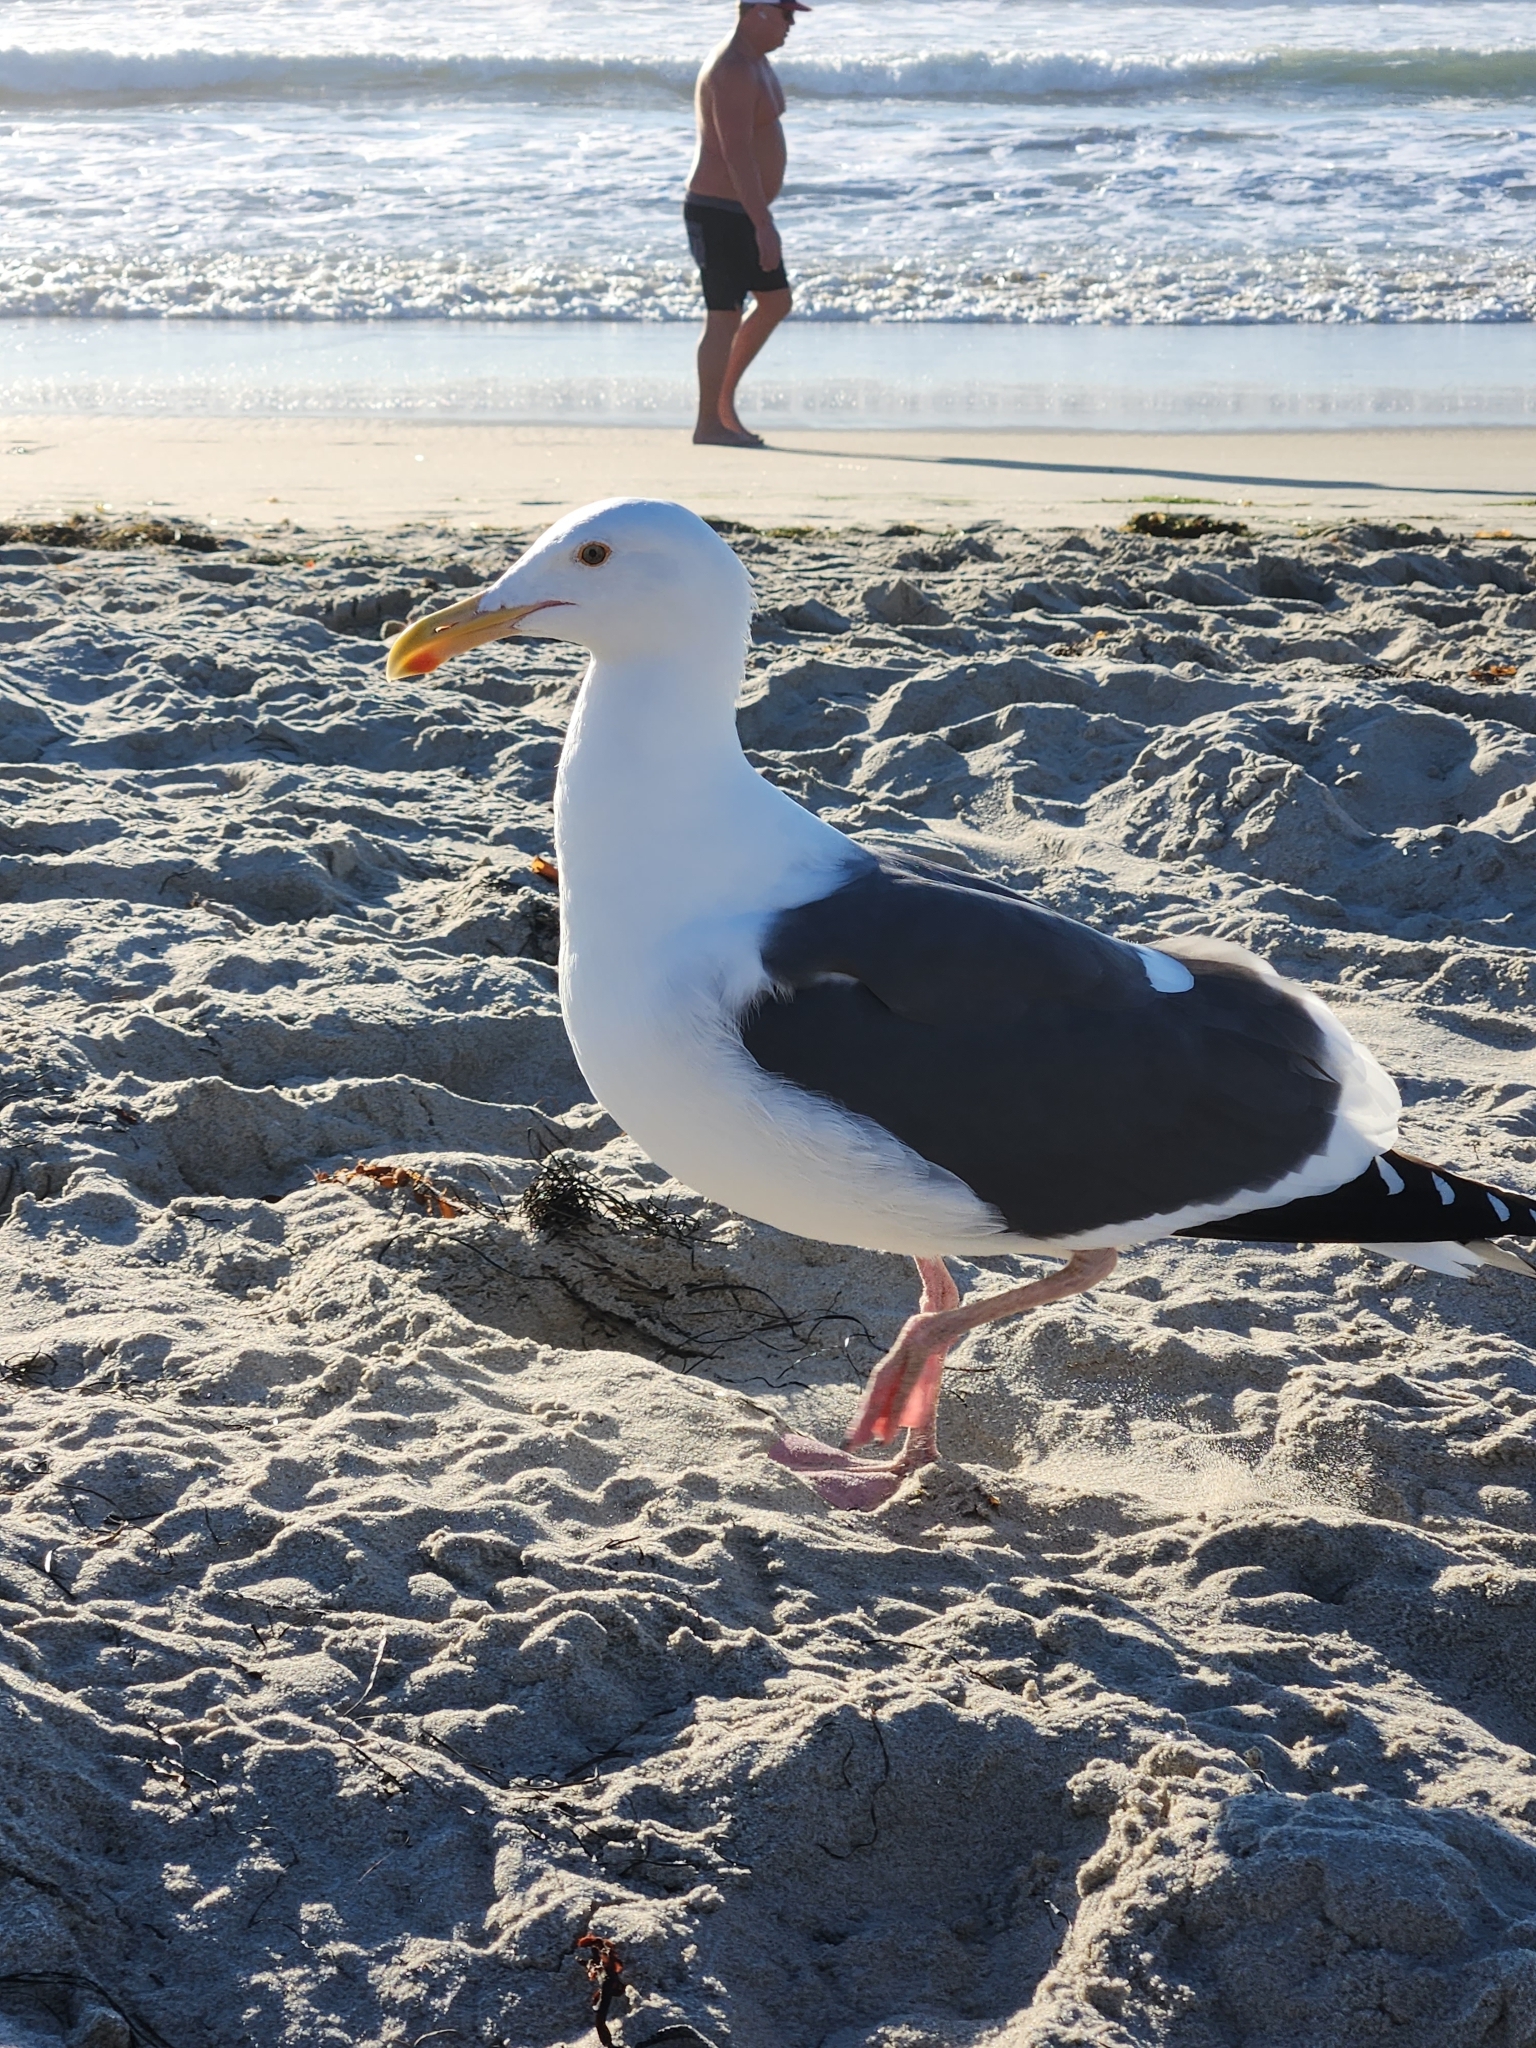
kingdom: Animalia
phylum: Chordata
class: Aves
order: Charadriiformes
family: Laridae
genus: Larus
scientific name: Larus occidentalis
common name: Western gull
